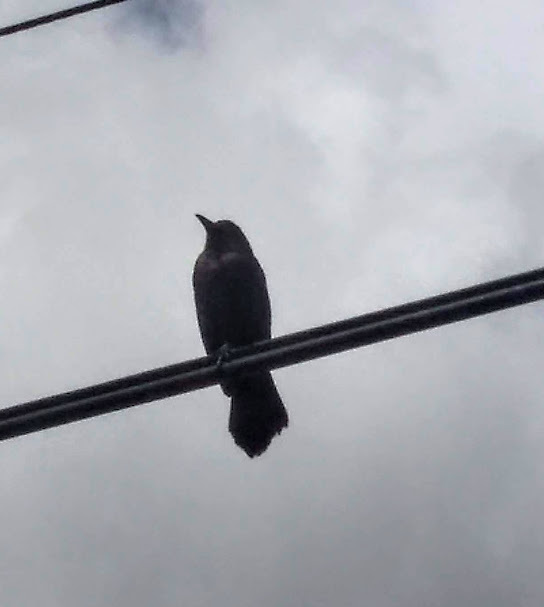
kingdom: Animalia
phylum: Chordata
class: Aves
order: Passeriformes
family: Icteridae
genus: Quiscalus
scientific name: Quiscalus lugubris
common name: Carib grackle
